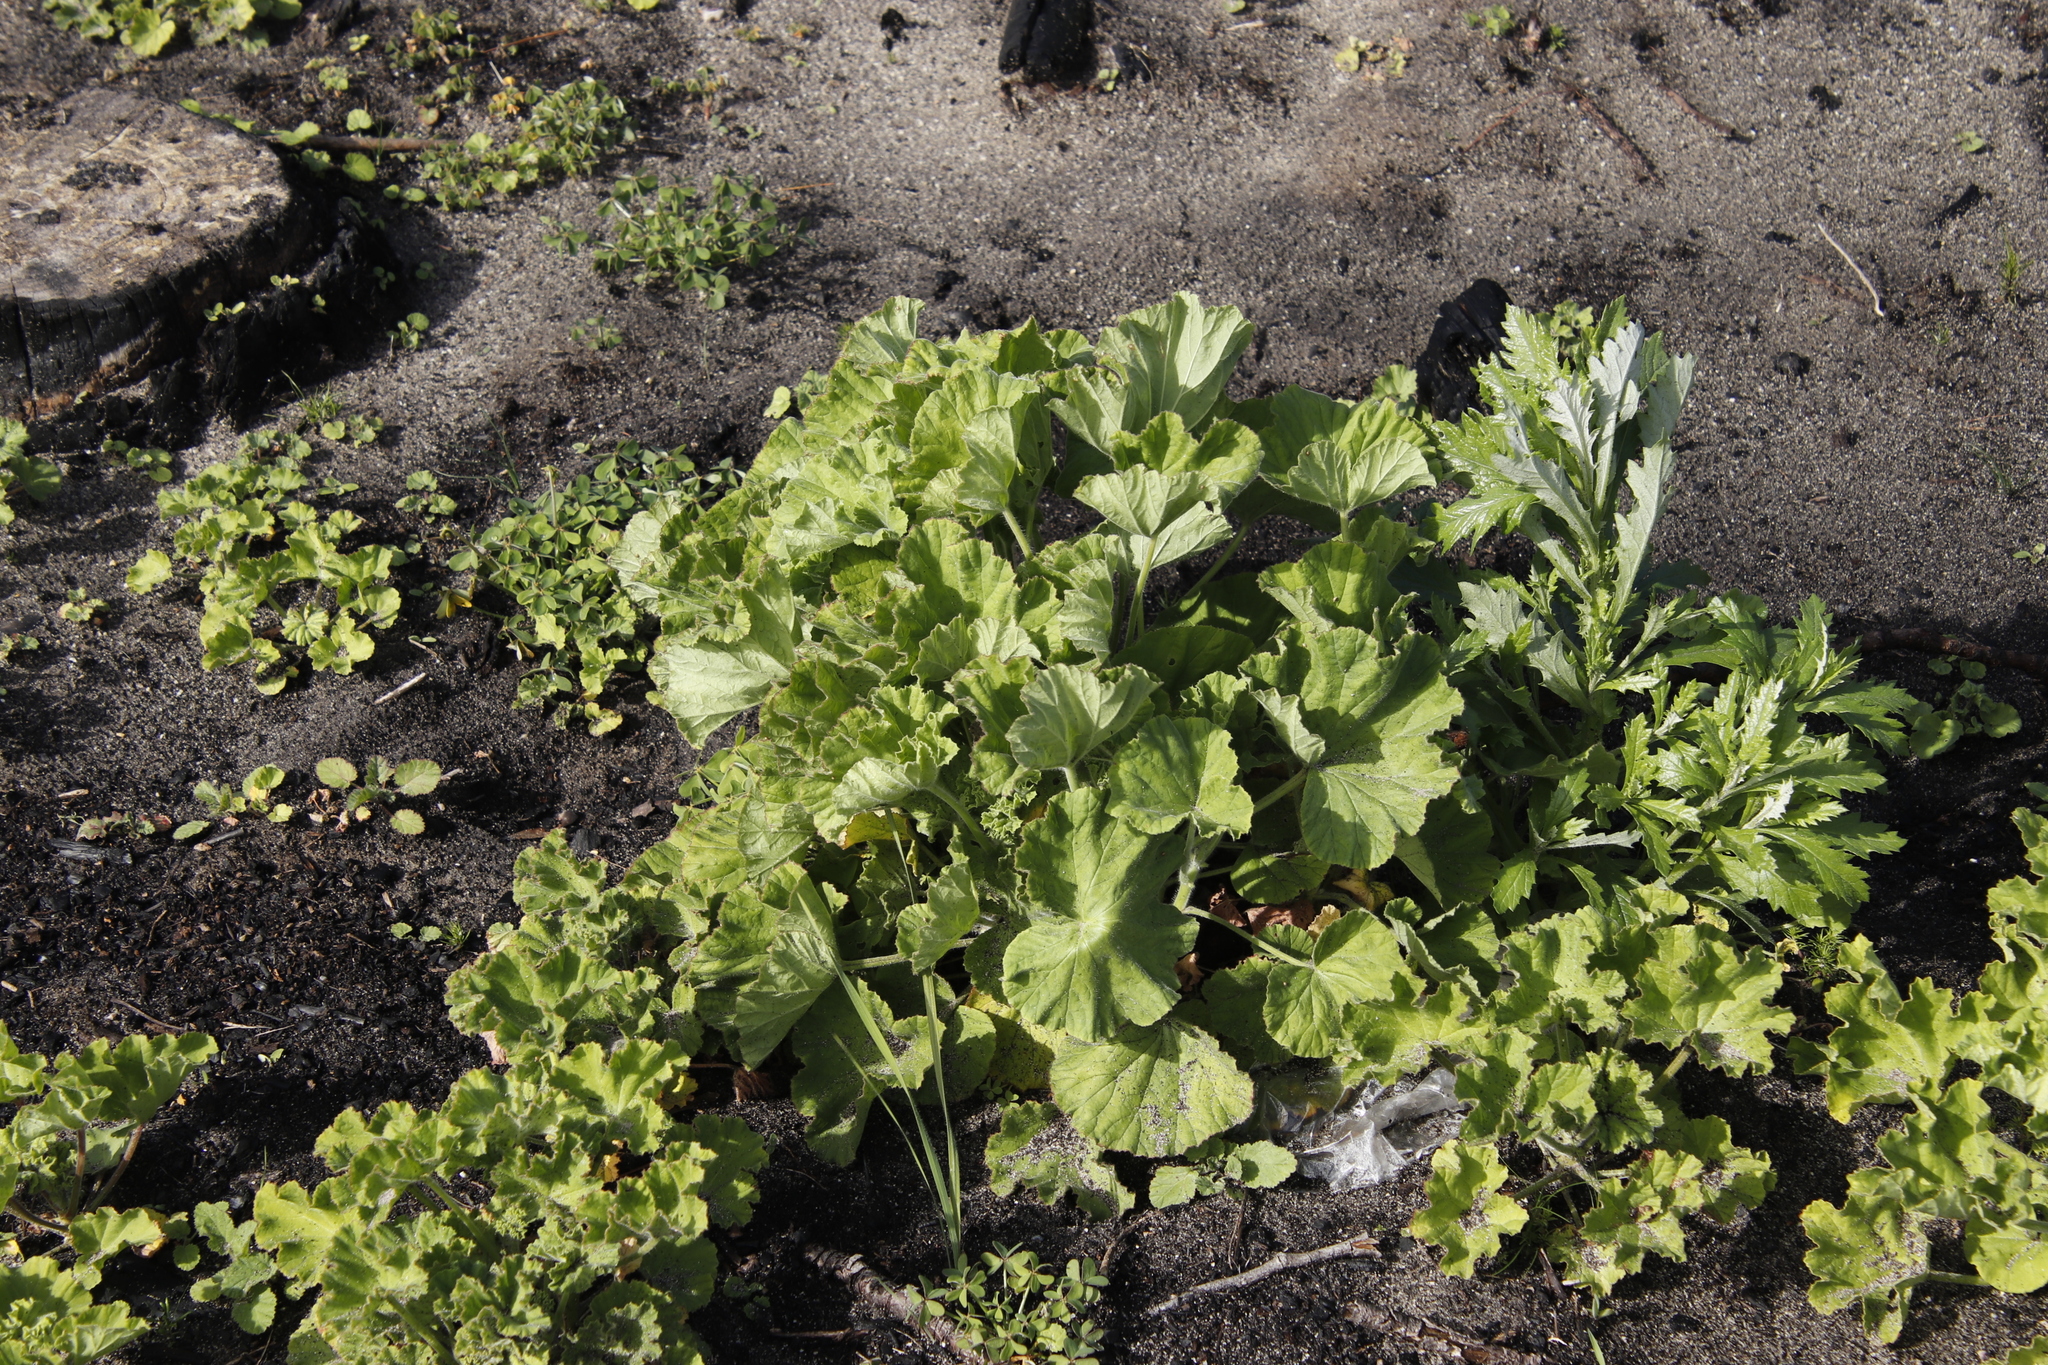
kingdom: Plantae
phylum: Tracheophyta
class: Magnoliopsida
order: Geraniales
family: Geraniaceae
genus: Pelargonium
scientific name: Pelargonium cucullatum
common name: Tree pelargonium
